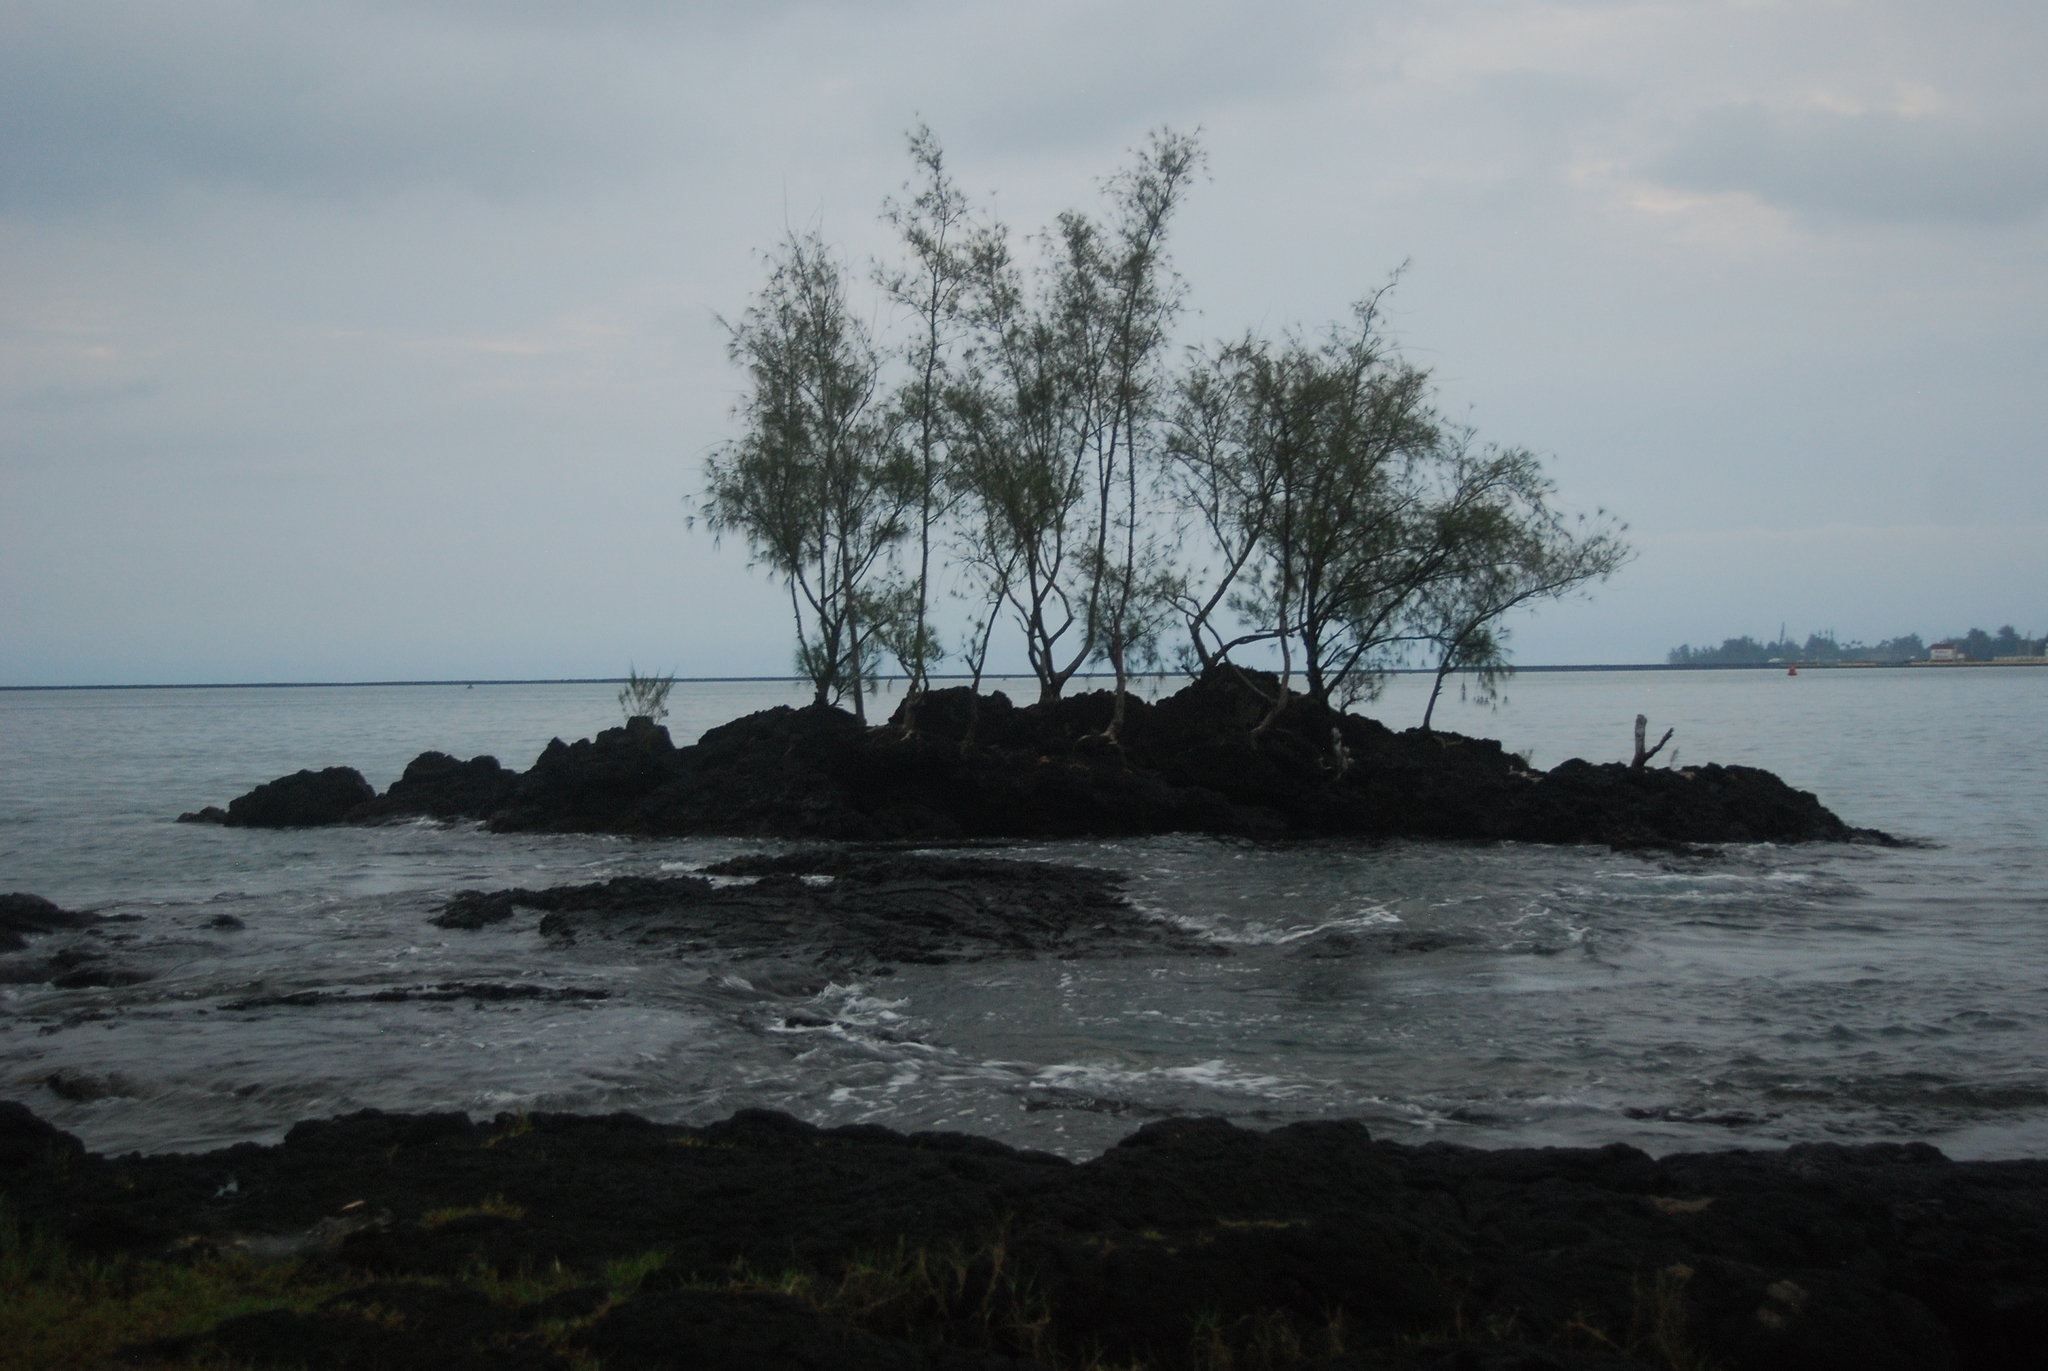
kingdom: Plantae
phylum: Tracheophyta
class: Magnoliopsida
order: Fagales
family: Casuarinaceae
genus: Casuarina
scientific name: Casuarina equisetifolia
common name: Beach sheoak
